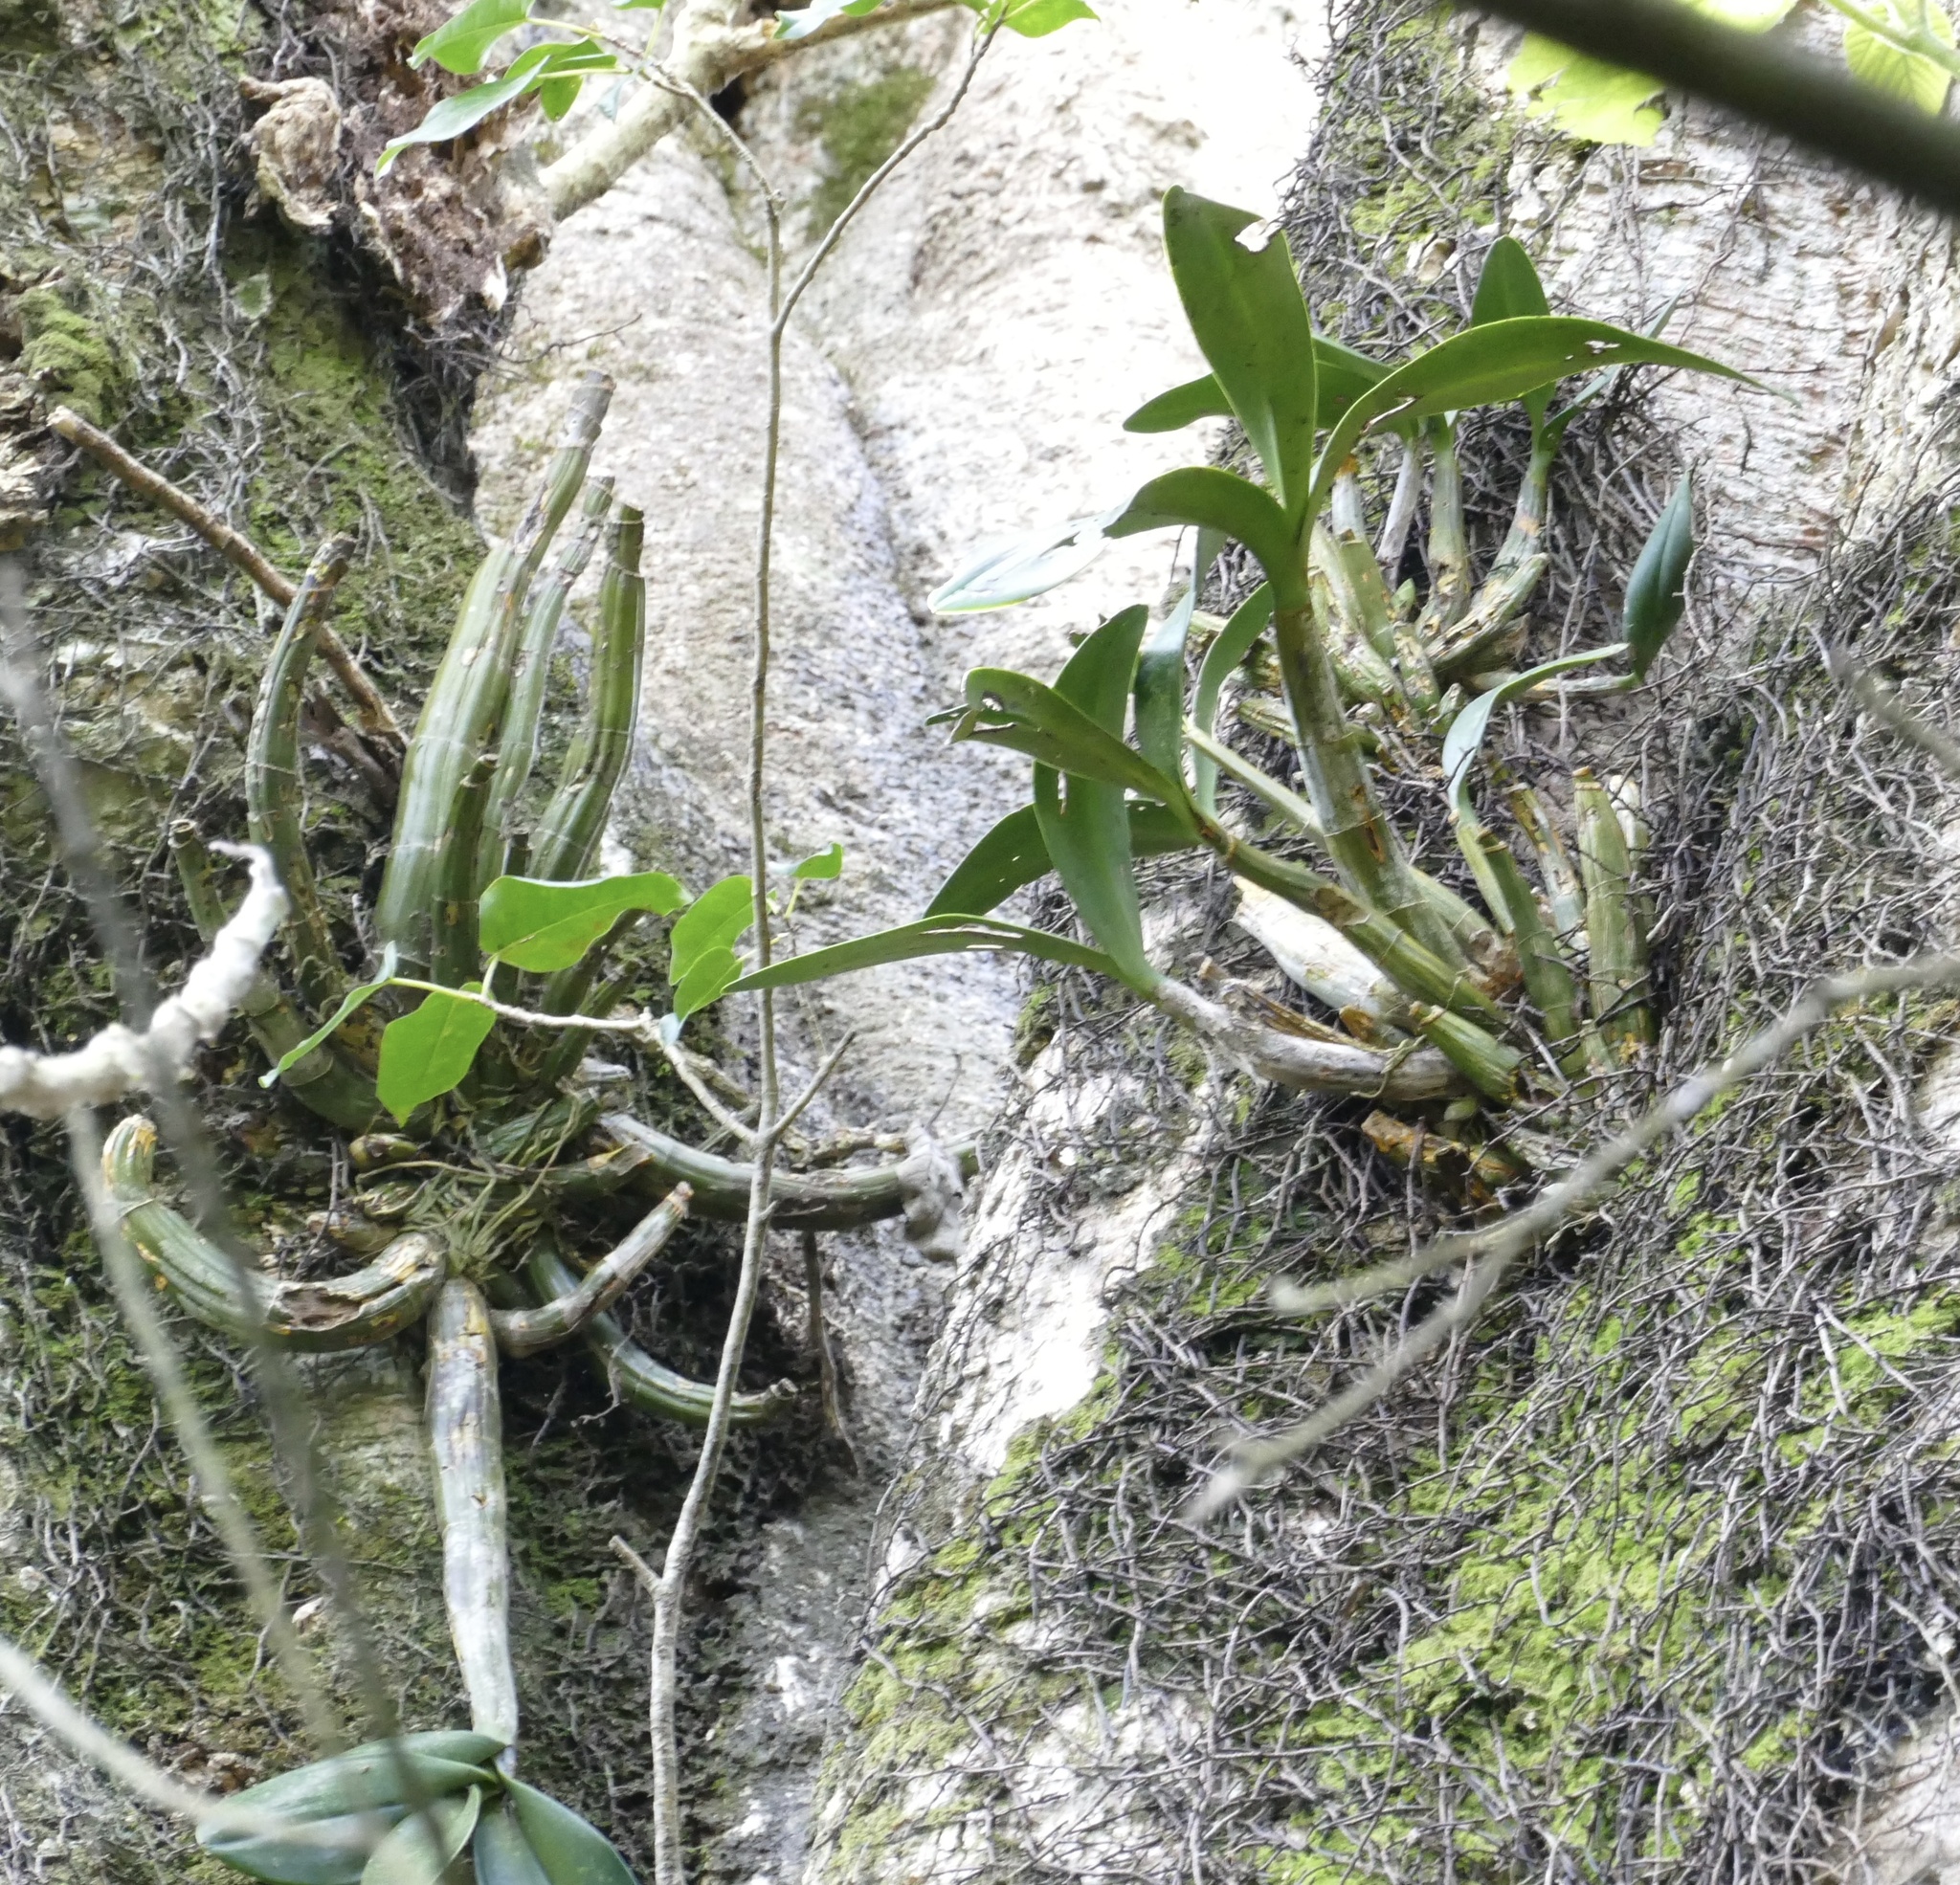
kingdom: Plantae
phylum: Tracheophyta
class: Liliopsida
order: Asparagales
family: Orchidaceae
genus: Dendrobium
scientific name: Dendrobium speciosum
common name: Rock-lily
